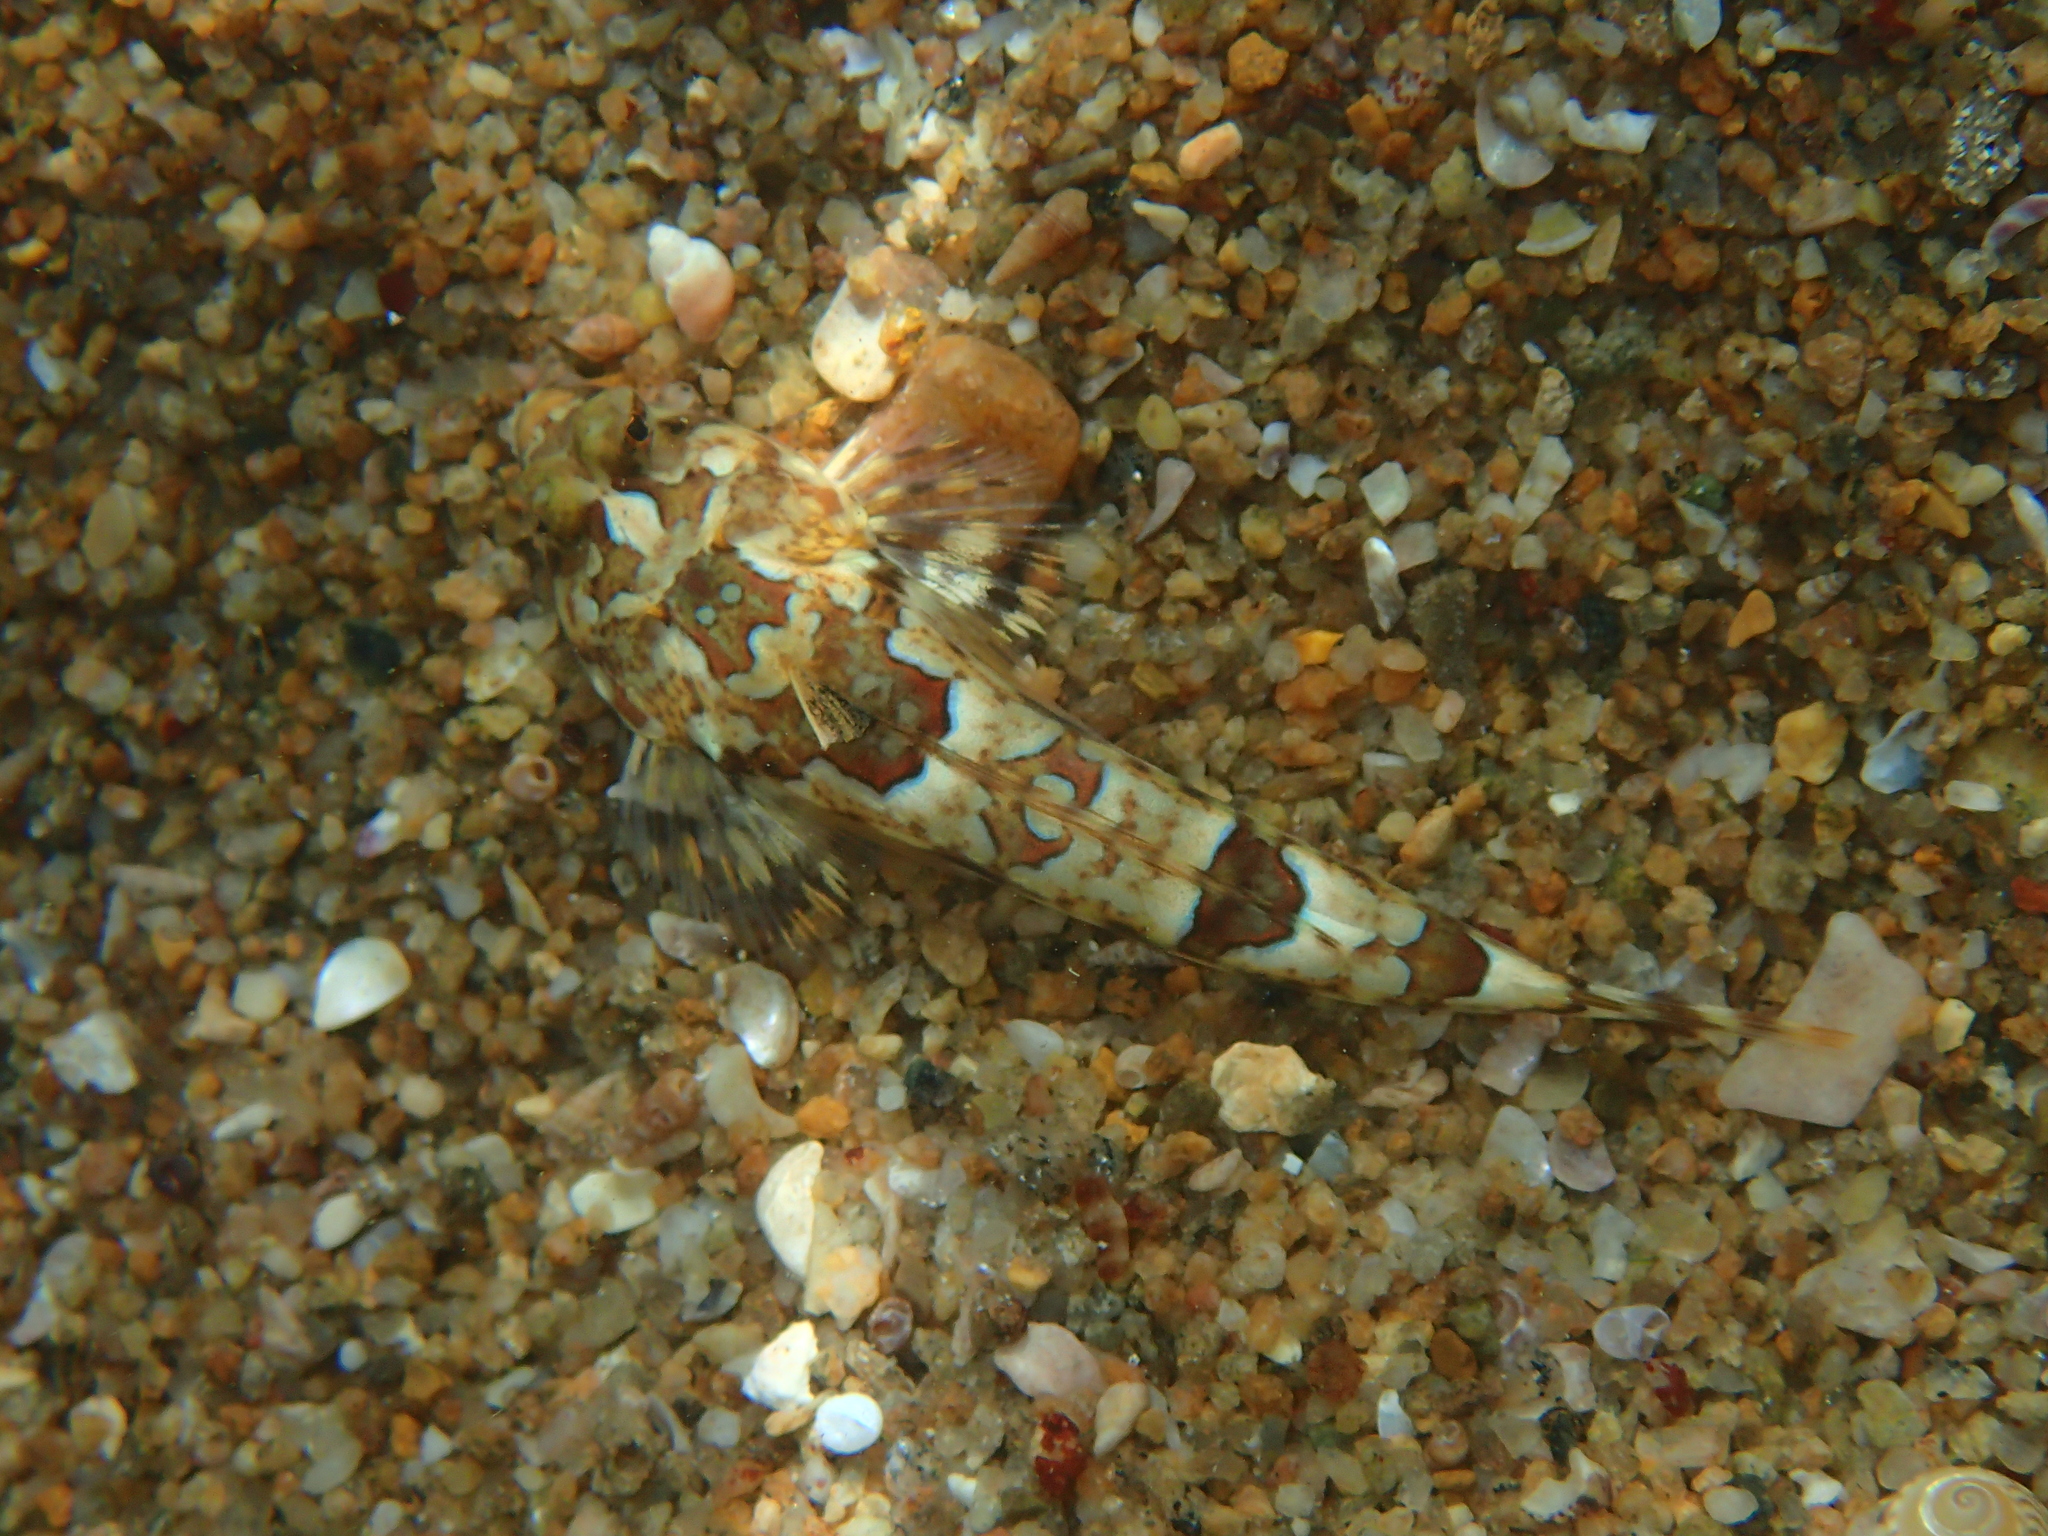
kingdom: Animalia
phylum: Chordata
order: Perciformes
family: Callionymidae
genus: Callionymus
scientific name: Callionymus lyra
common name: Dragonet
